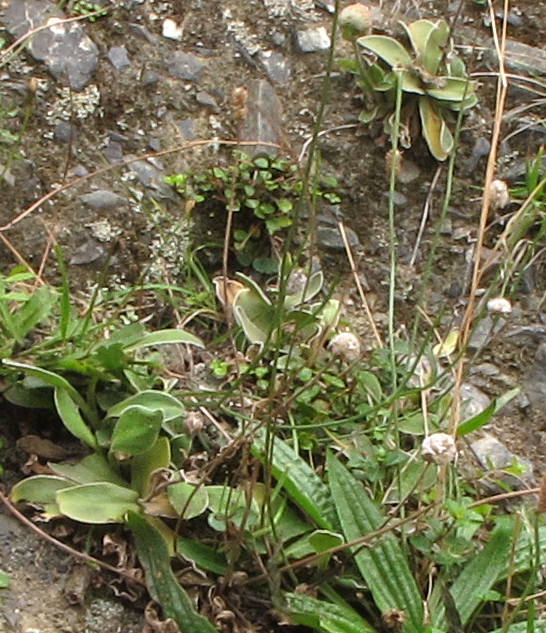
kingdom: Plantae
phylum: Tracheophyta
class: Magnoliopsida
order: Asterales
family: Asteraceae
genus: Craspedia
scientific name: Craspedia uniflora
